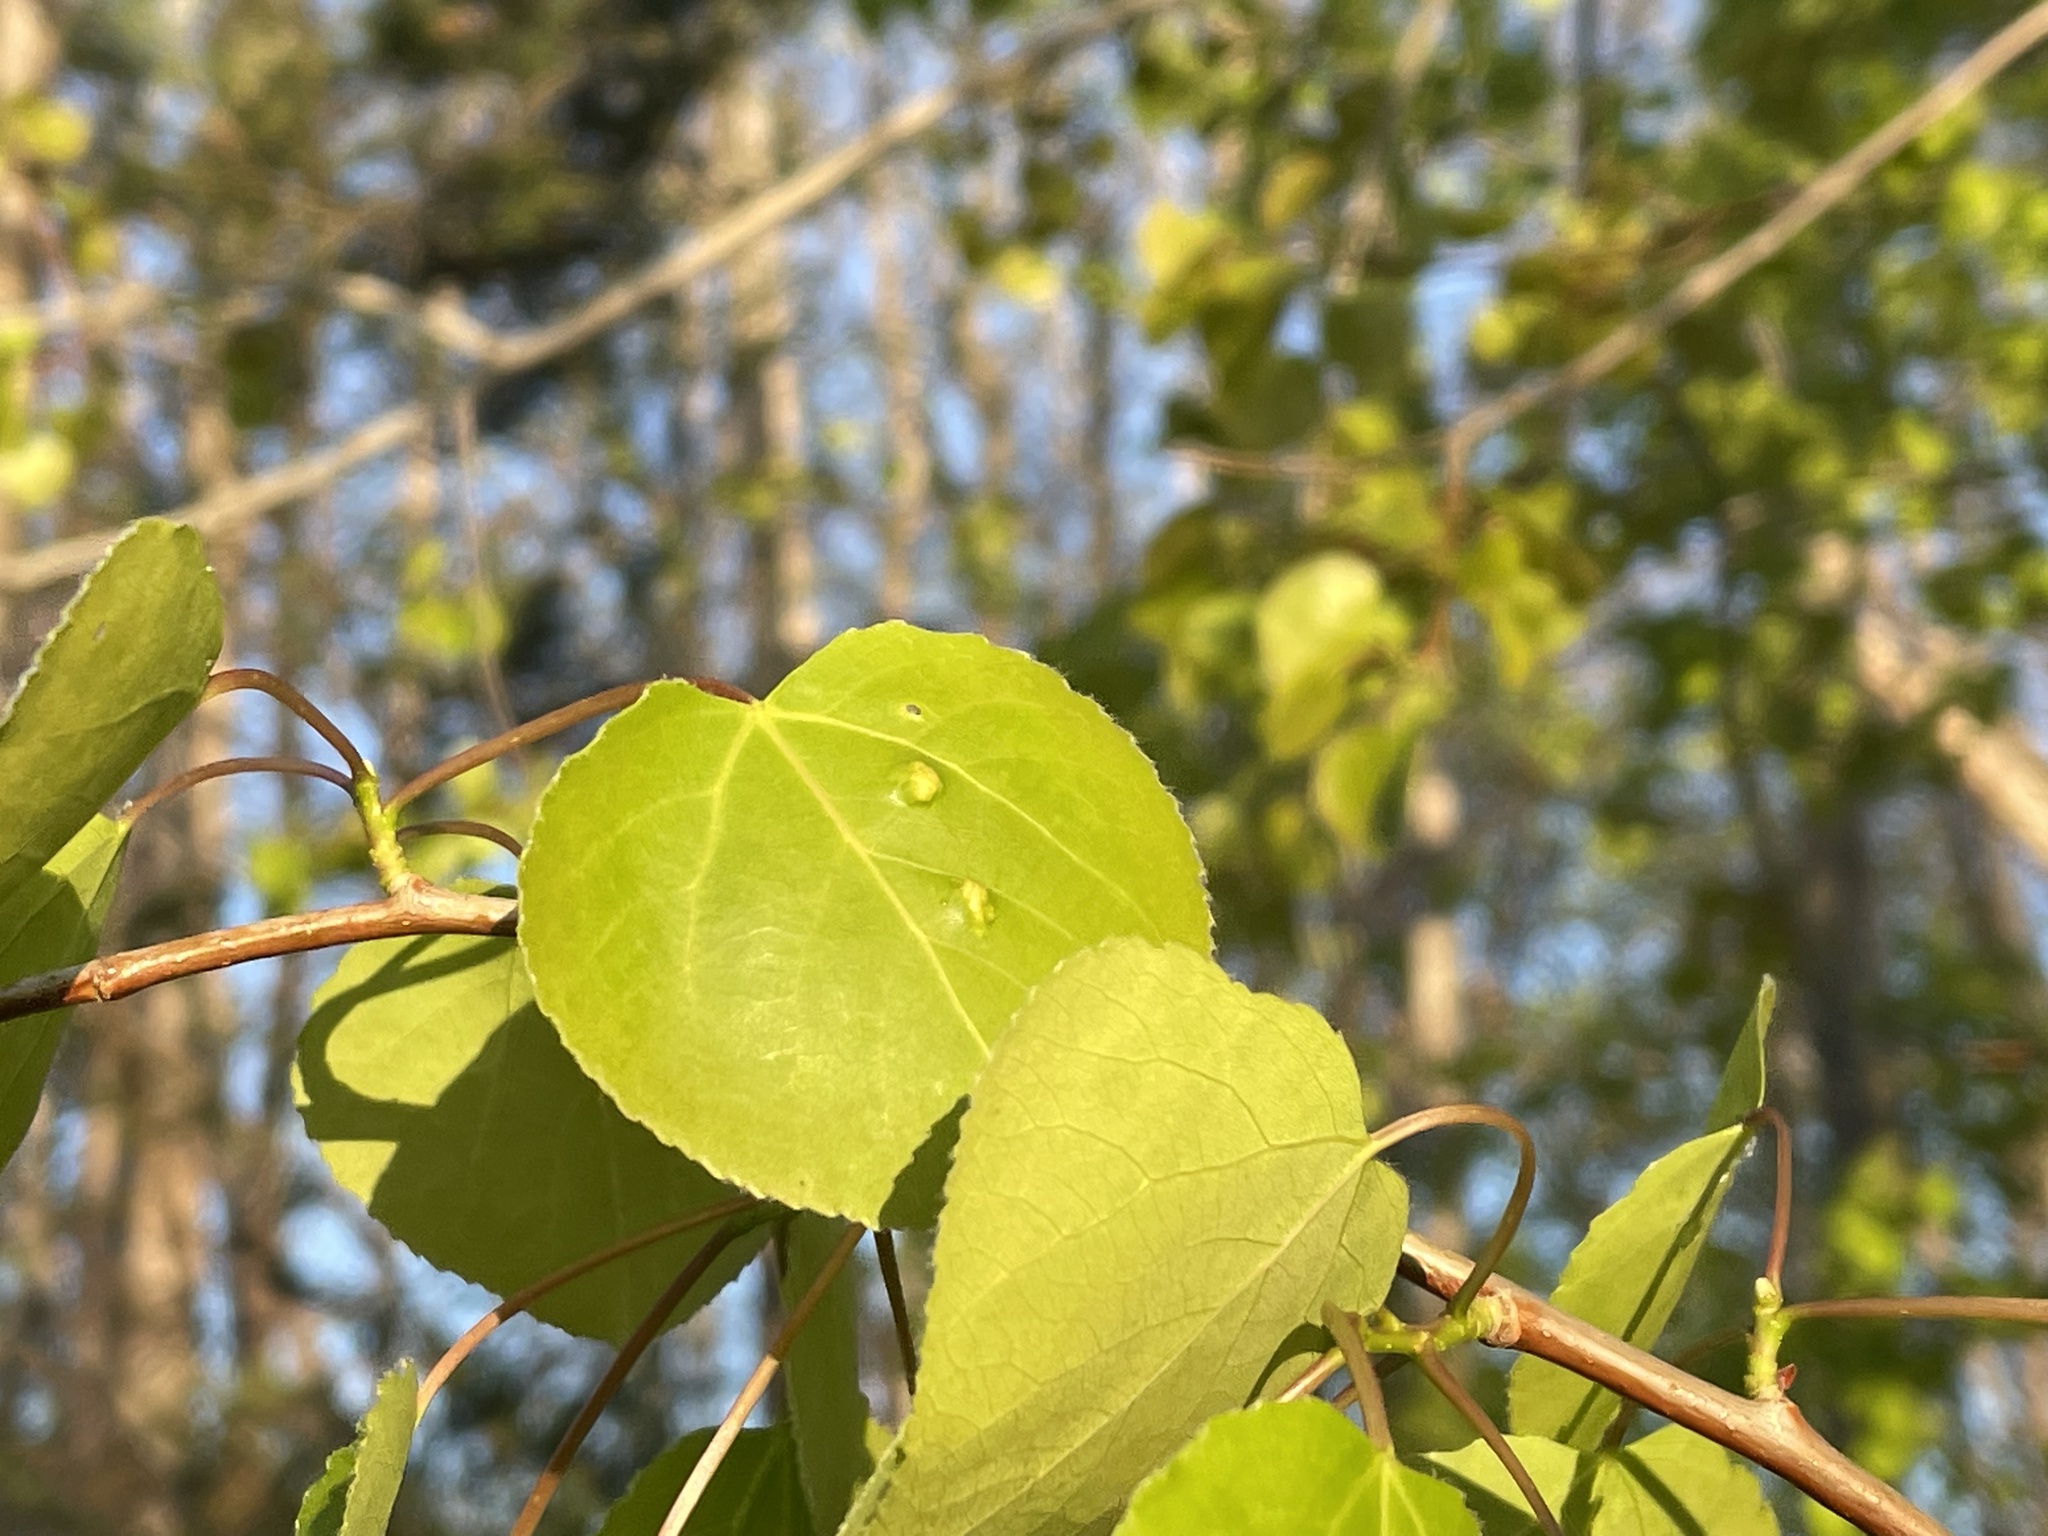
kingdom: Animalia
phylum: Arthropoda
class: Arachnida
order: Trombidiformes
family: Eriophyidae
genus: Phyllocoptes
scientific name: Phyllocoptes
